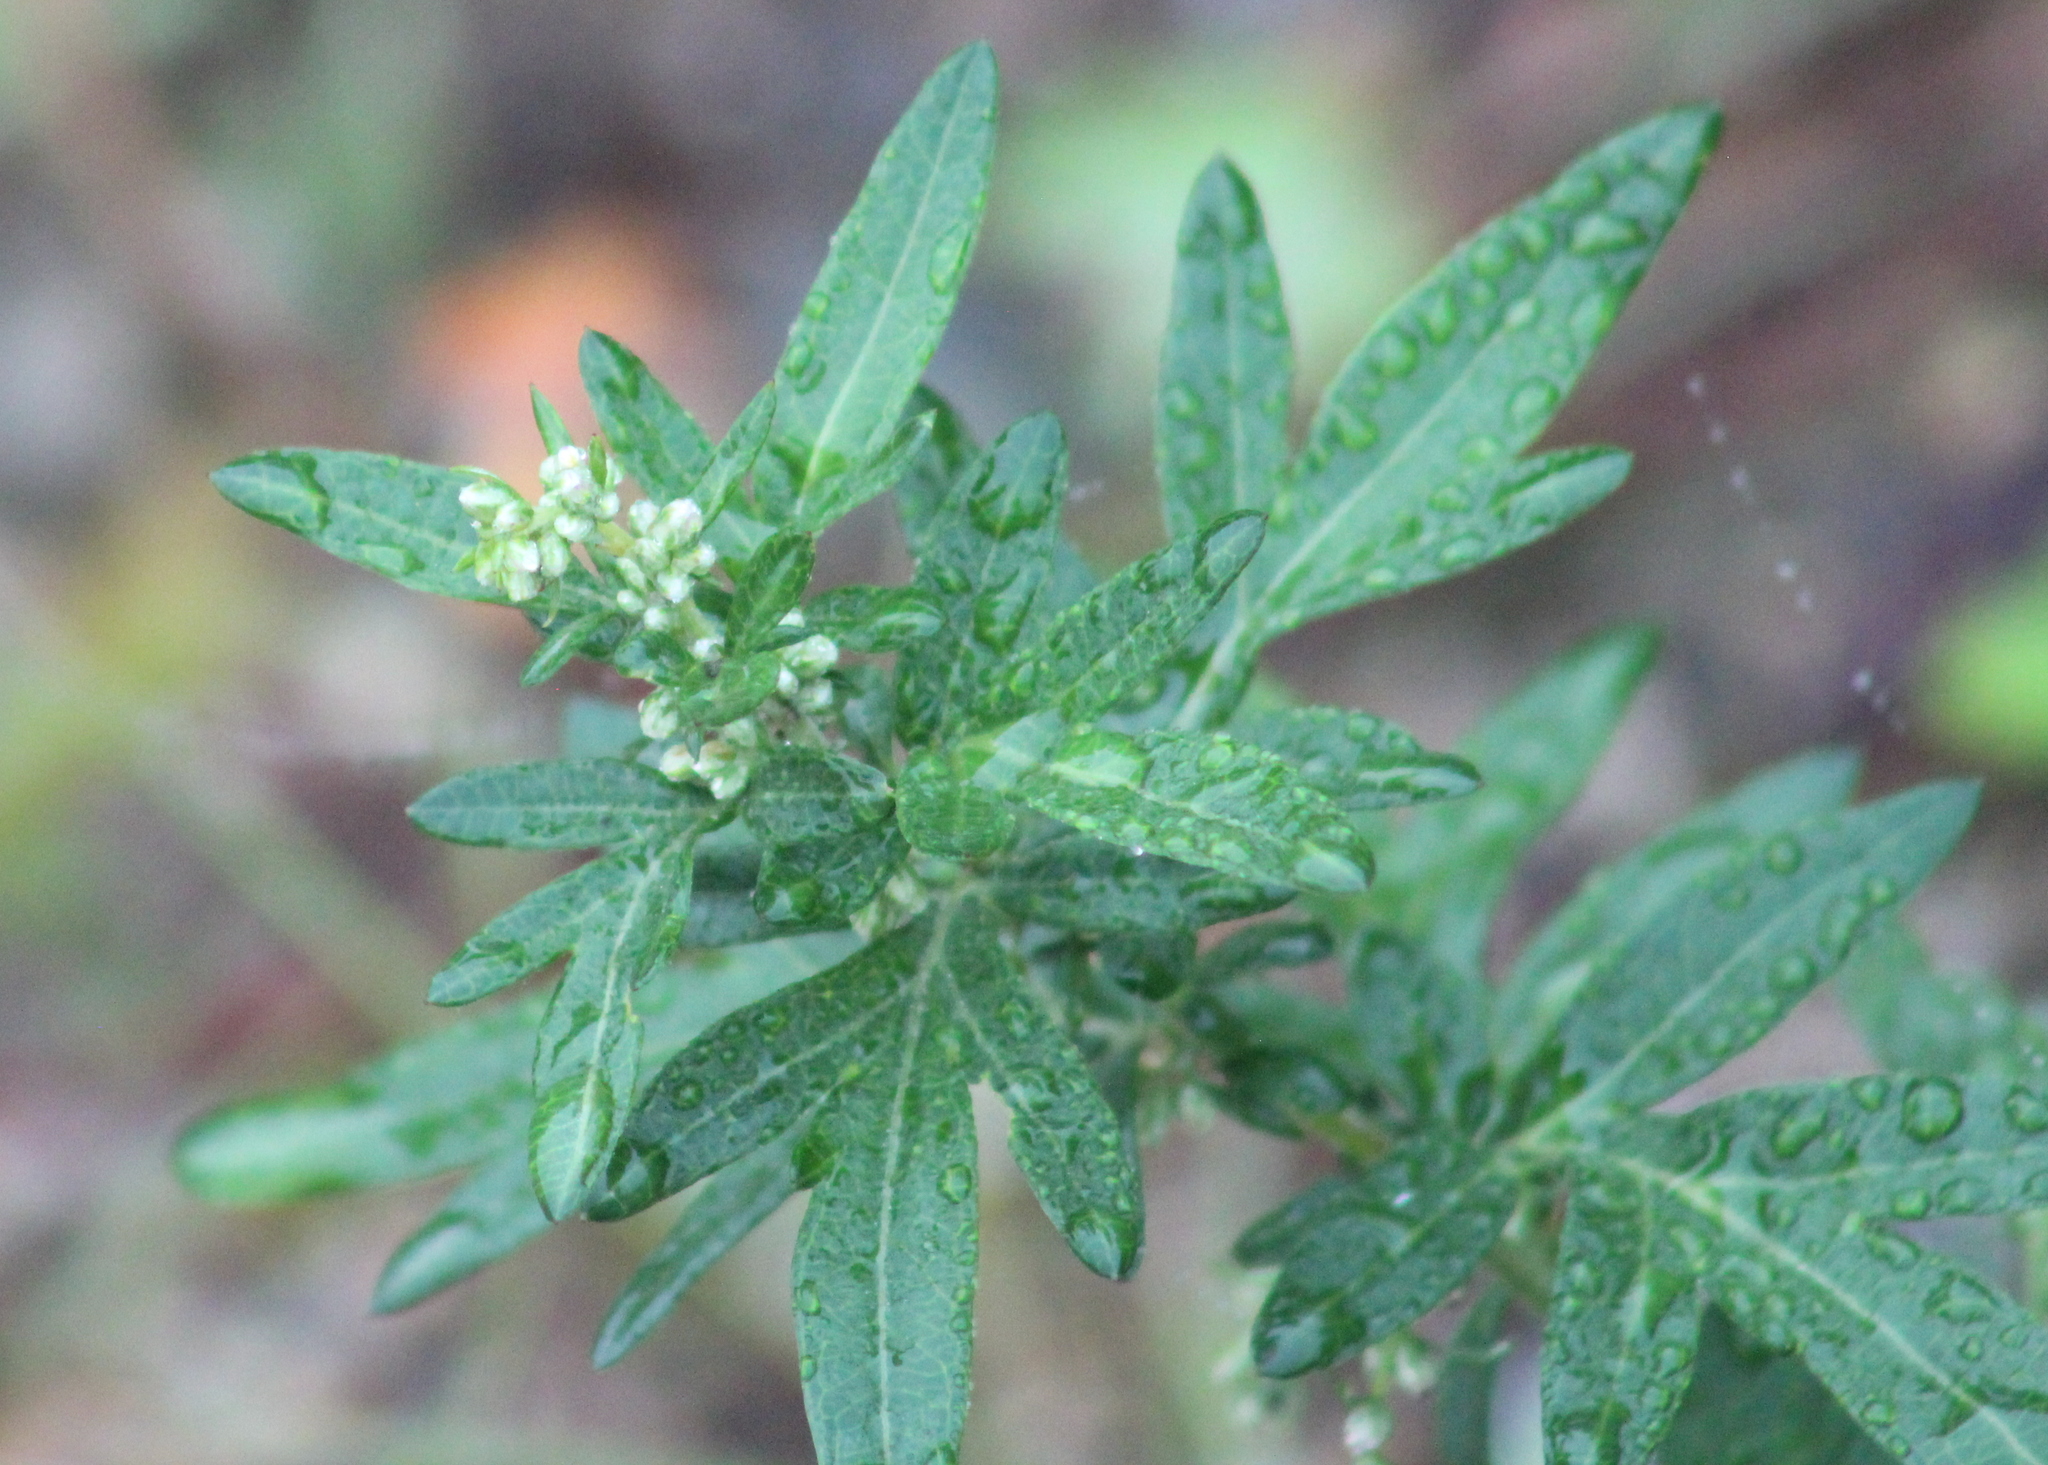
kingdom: Plantae
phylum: Tracheophyta
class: Magnoliopsida
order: Asterales
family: Asteraceae
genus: Artemisia
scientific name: Artemisia vulgaris
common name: Mugwort
